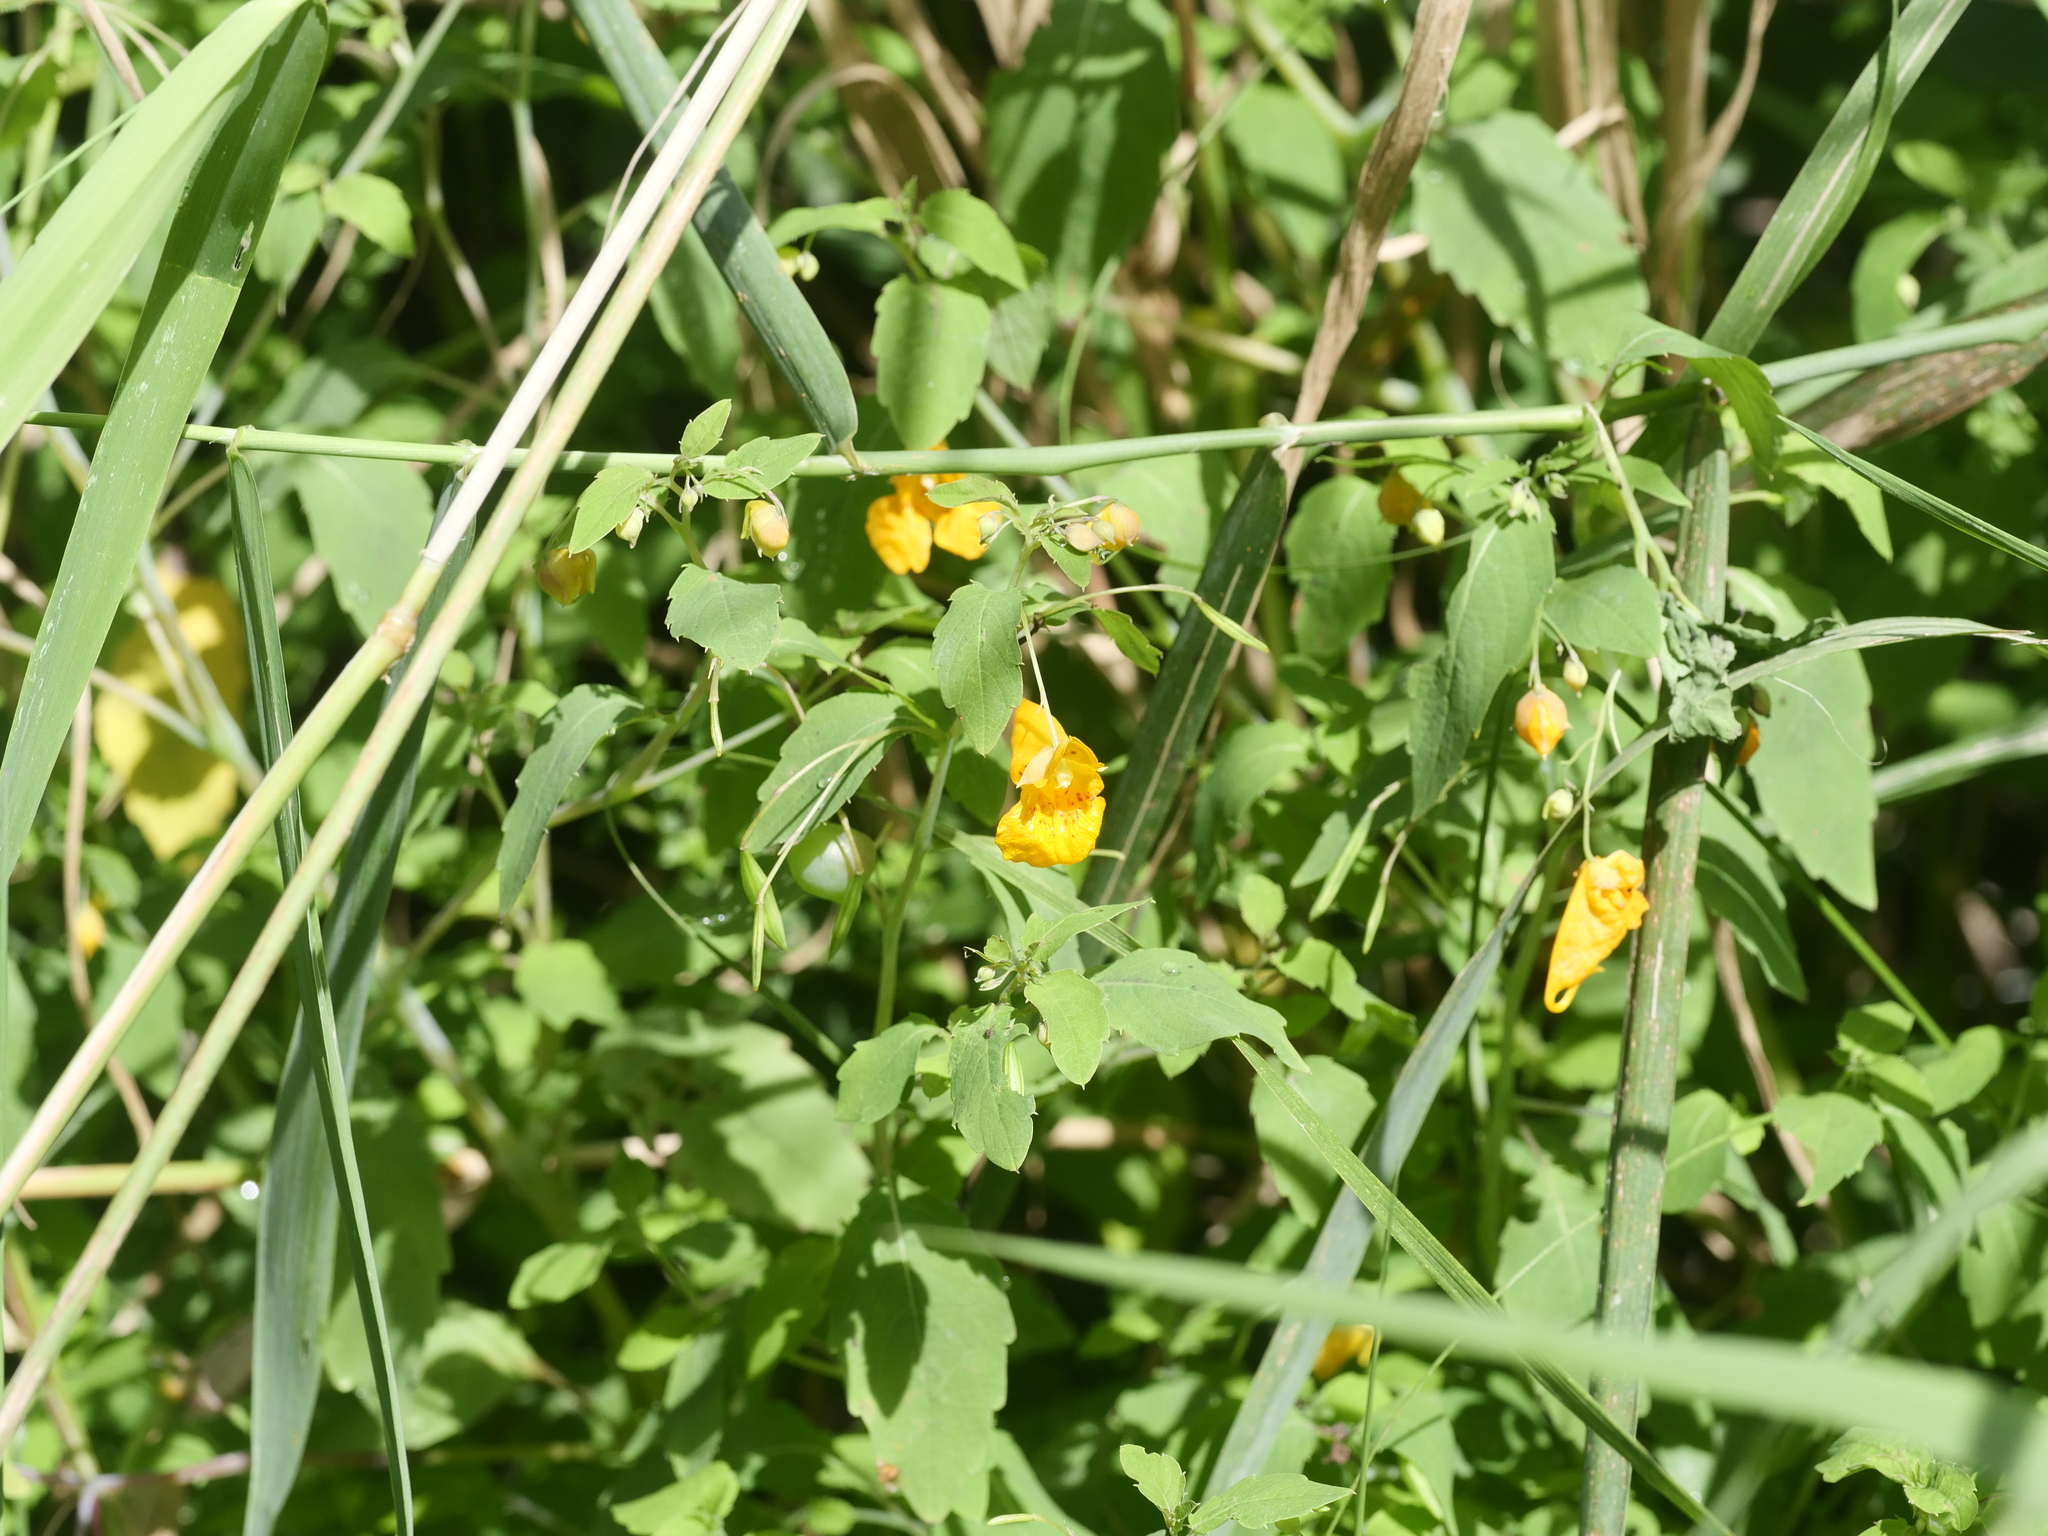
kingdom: Plantae
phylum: Tracheophyta
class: Magnoliopsida
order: Ericales
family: Balsaminaceae
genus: Impatiens
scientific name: Impatiens capensis
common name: Orange balsam
